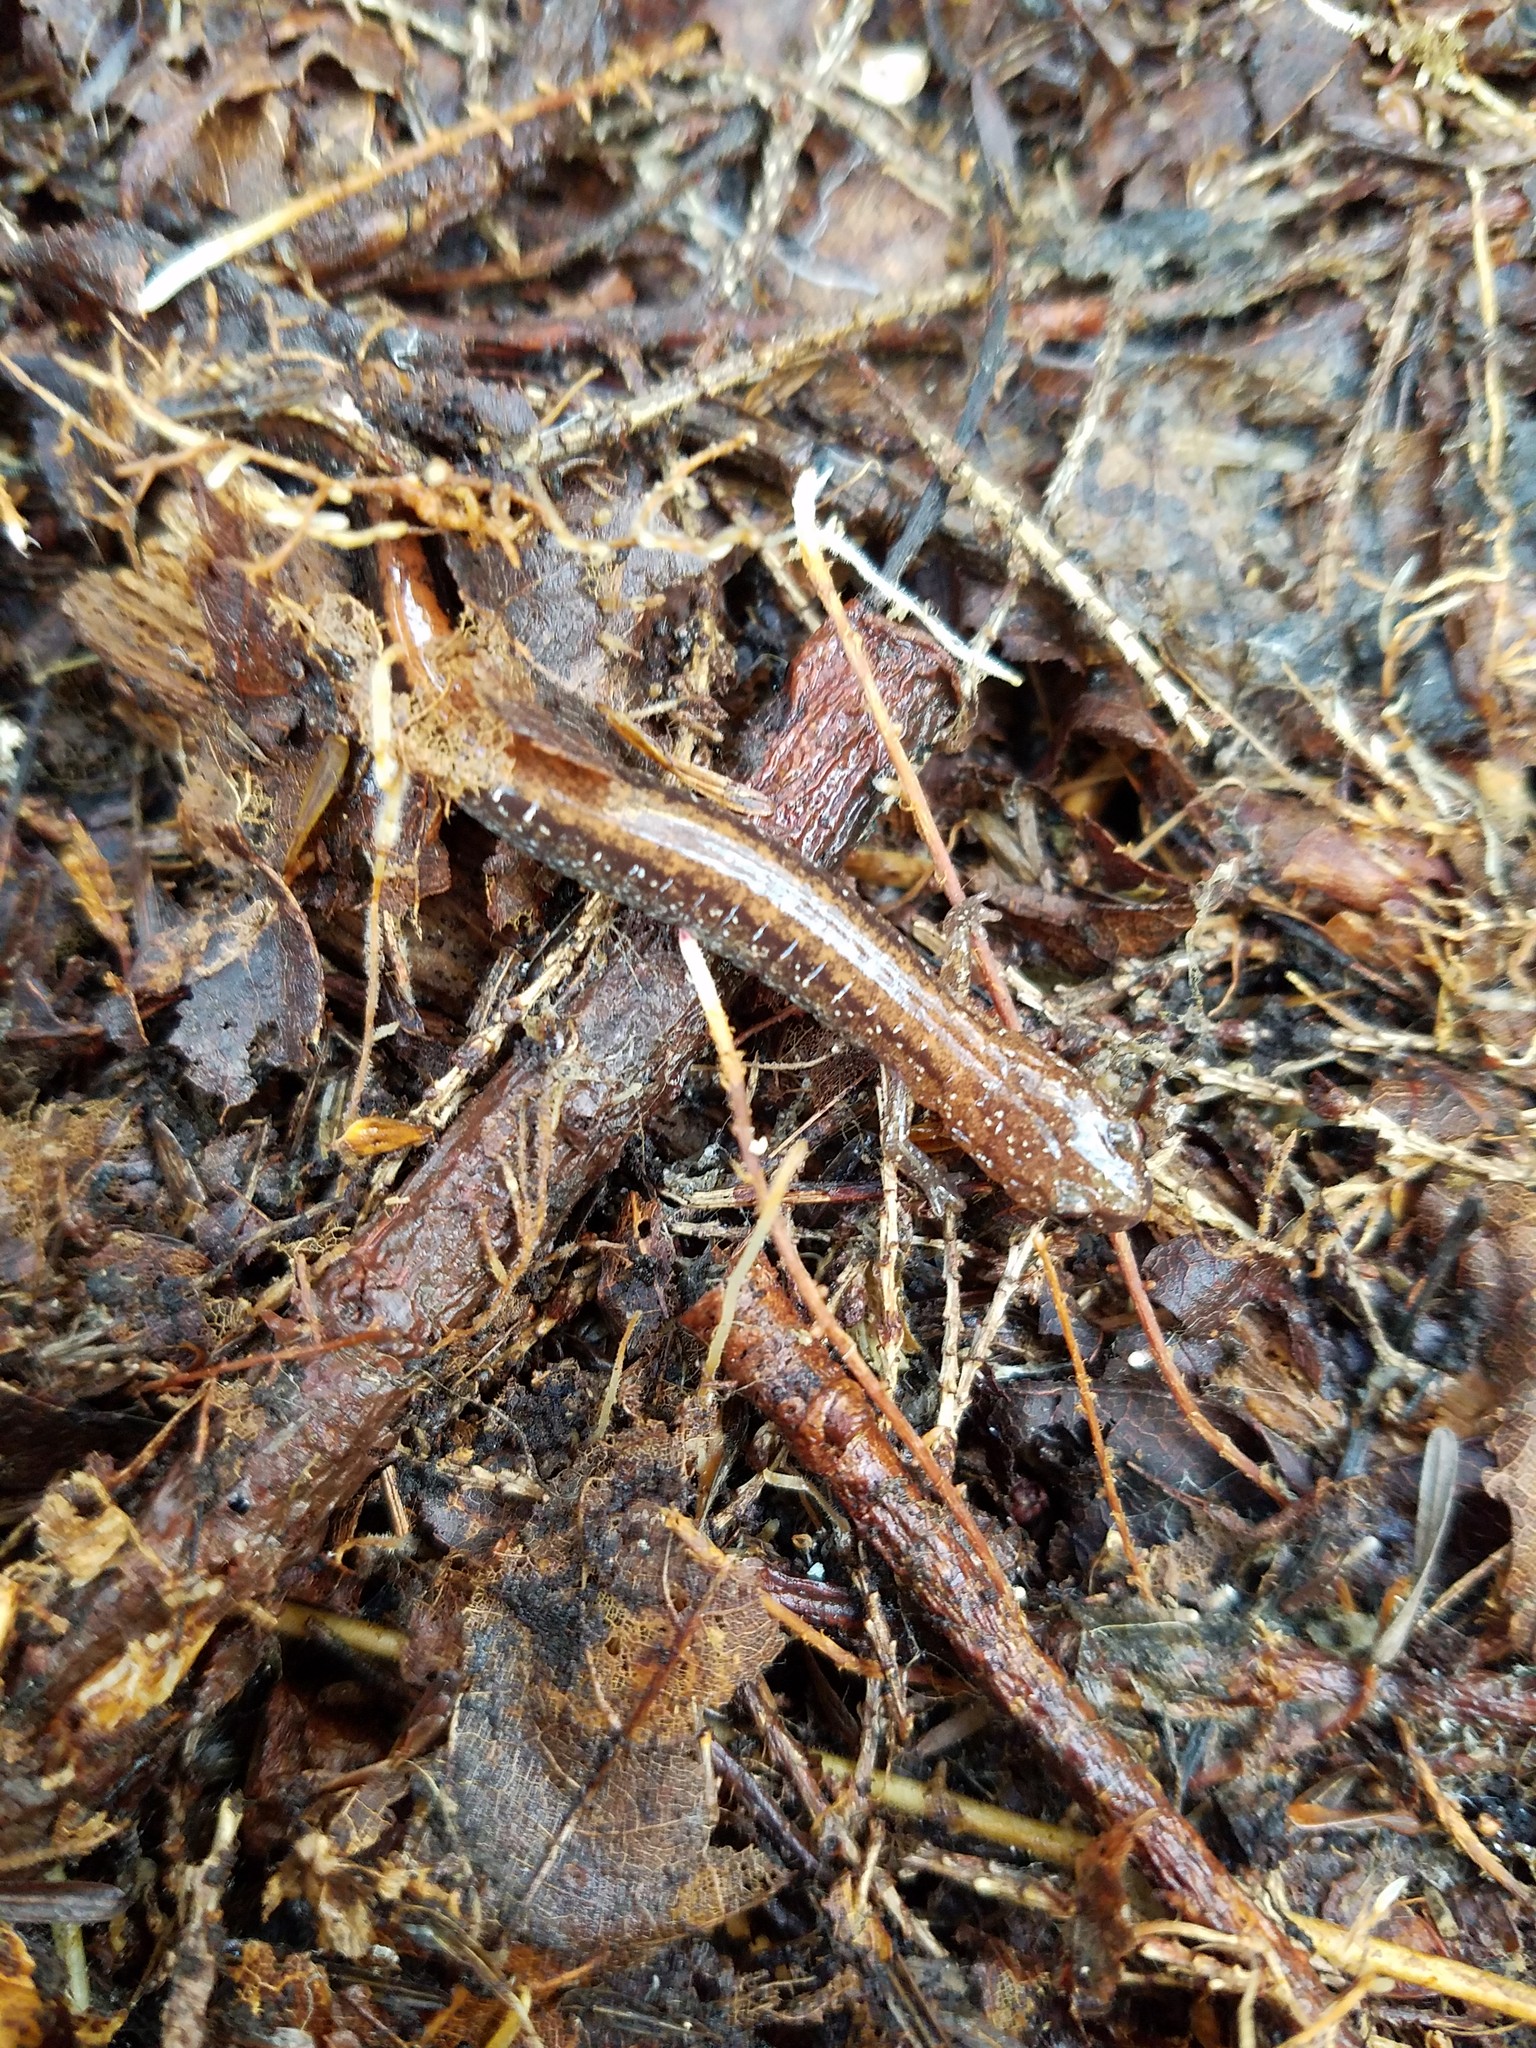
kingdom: Animalia
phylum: Chordata
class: Amphibia
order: Caudata
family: Plethodontidae
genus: Plethodon
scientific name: Plethodon cinereus
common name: Redback salamander
